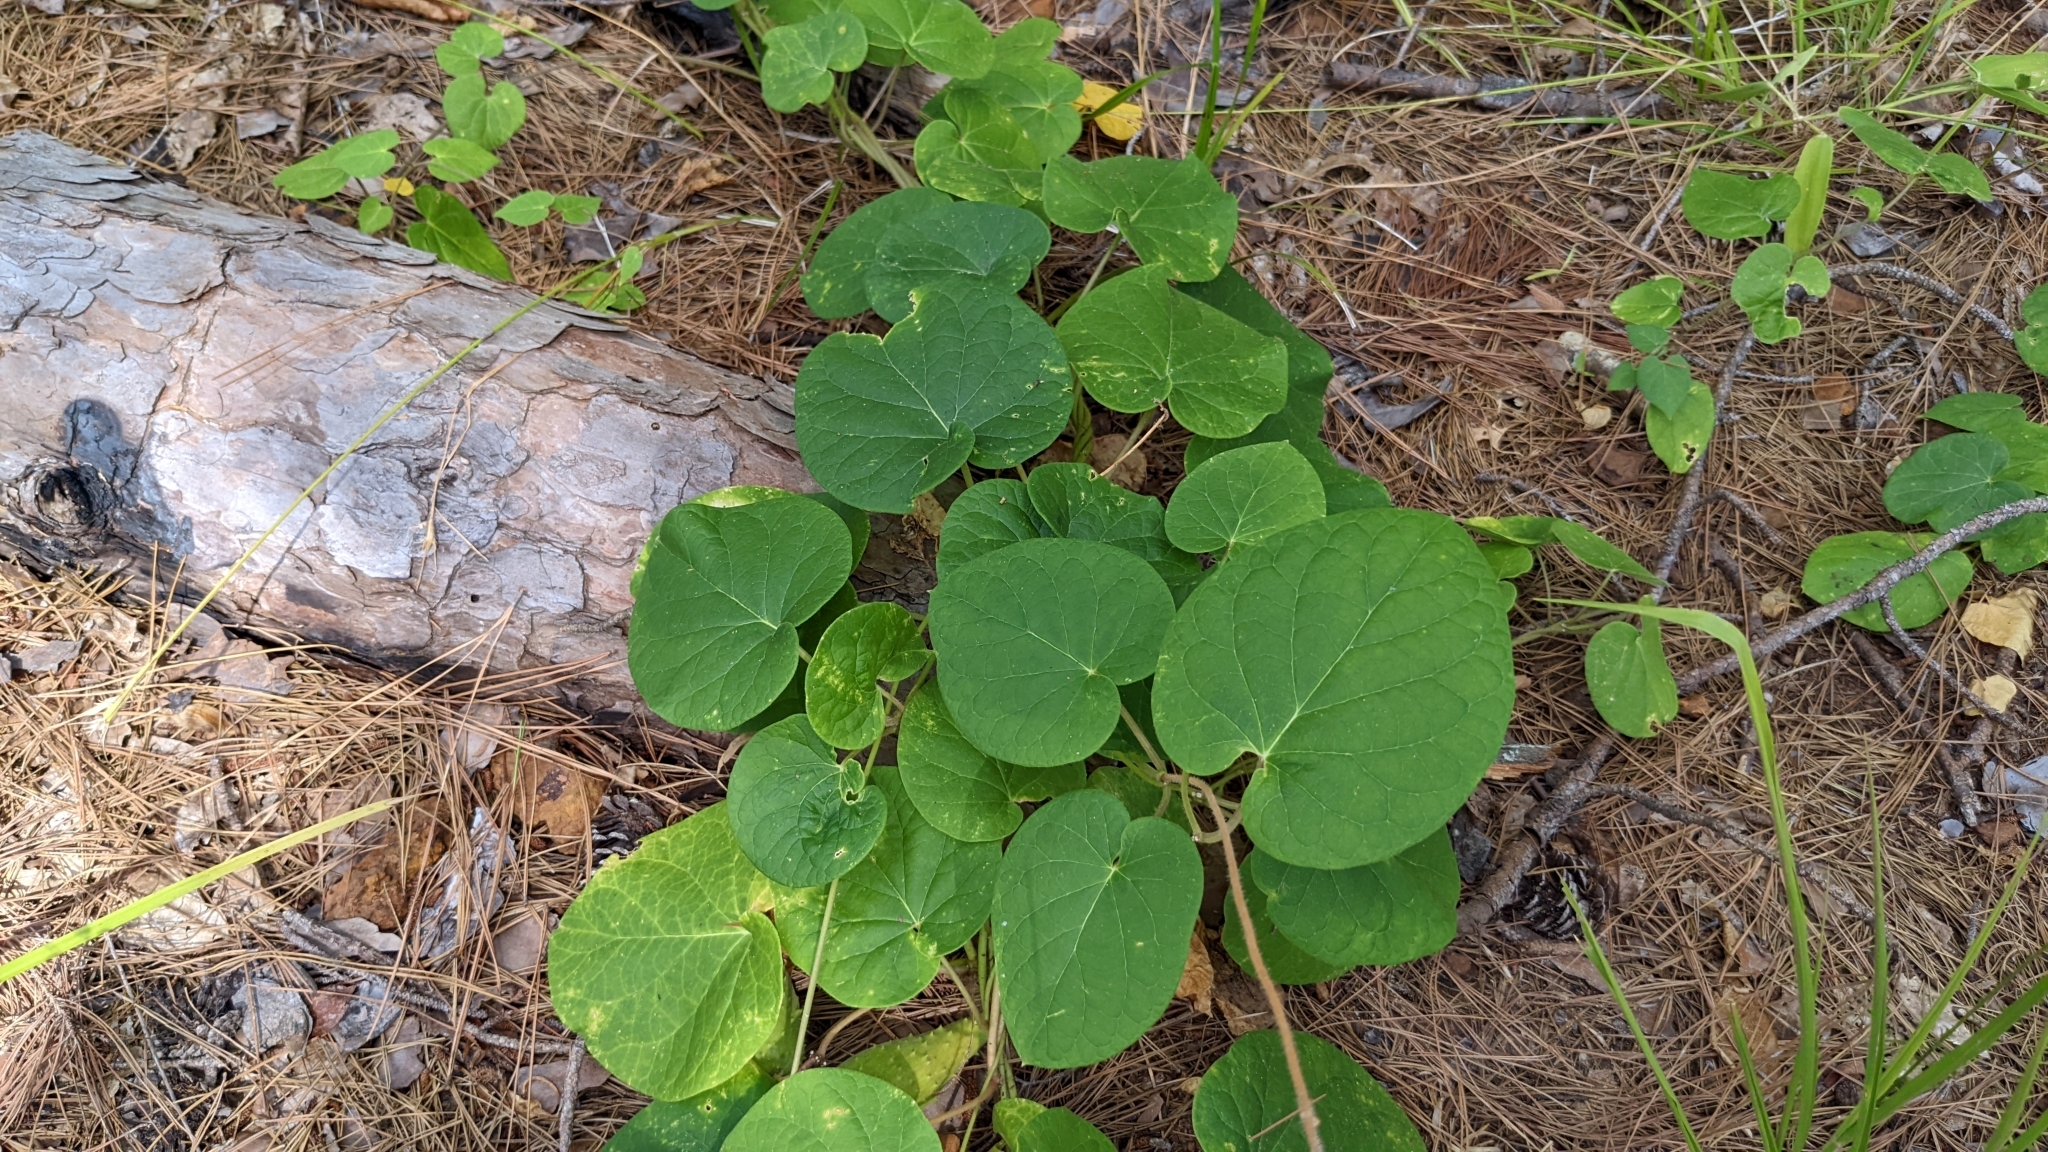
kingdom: Plantae
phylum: Tracheophyta
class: Magnoliopsida
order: Gentianales
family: Apocynaceae
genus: Matelea
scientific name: Matelea hirtelliflora
